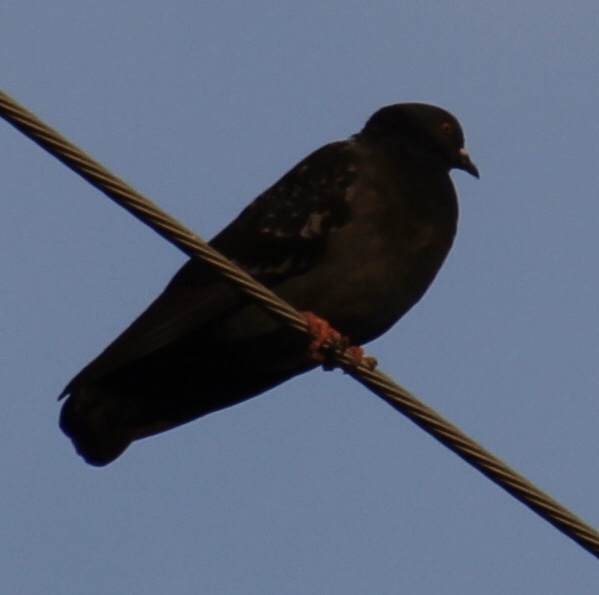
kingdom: Animalia
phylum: Chordata
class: Aves
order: Columbiformes
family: Columbidae
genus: Columba
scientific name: Columba livia
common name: Rock pigeon
